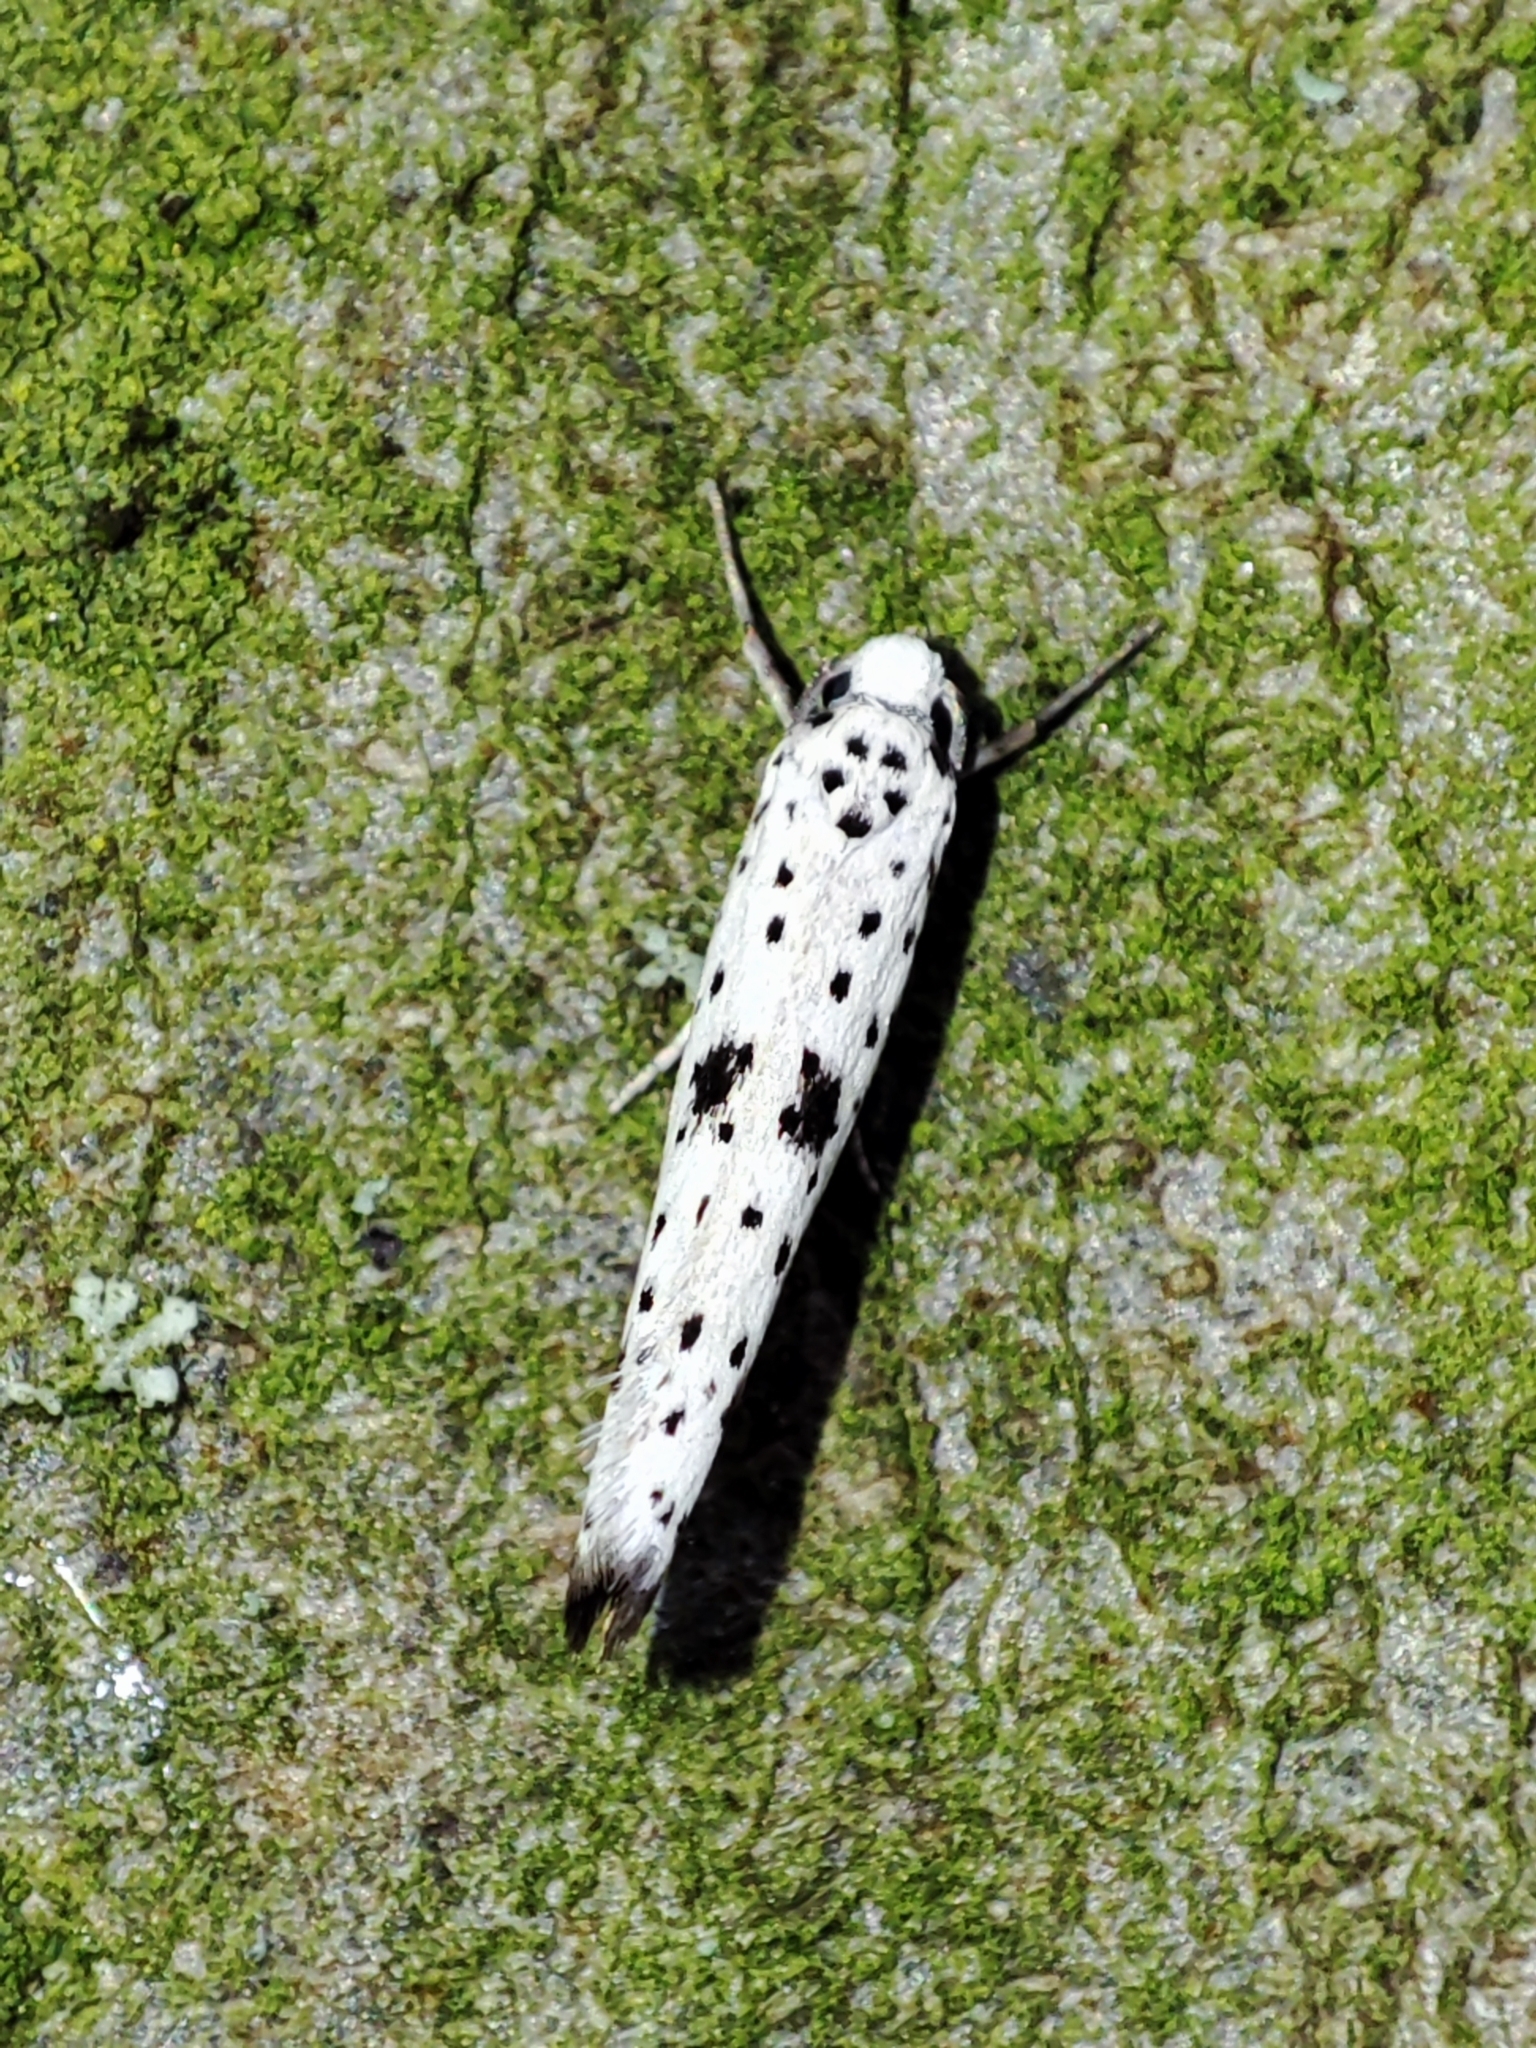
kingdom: Animalia
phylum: Arthropoda
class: Insecta
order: Lepidoptera
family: Yponomeutidae
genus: Yponomeuta
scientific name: Yponomeuta plumbella
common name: Black-tipped ermine
